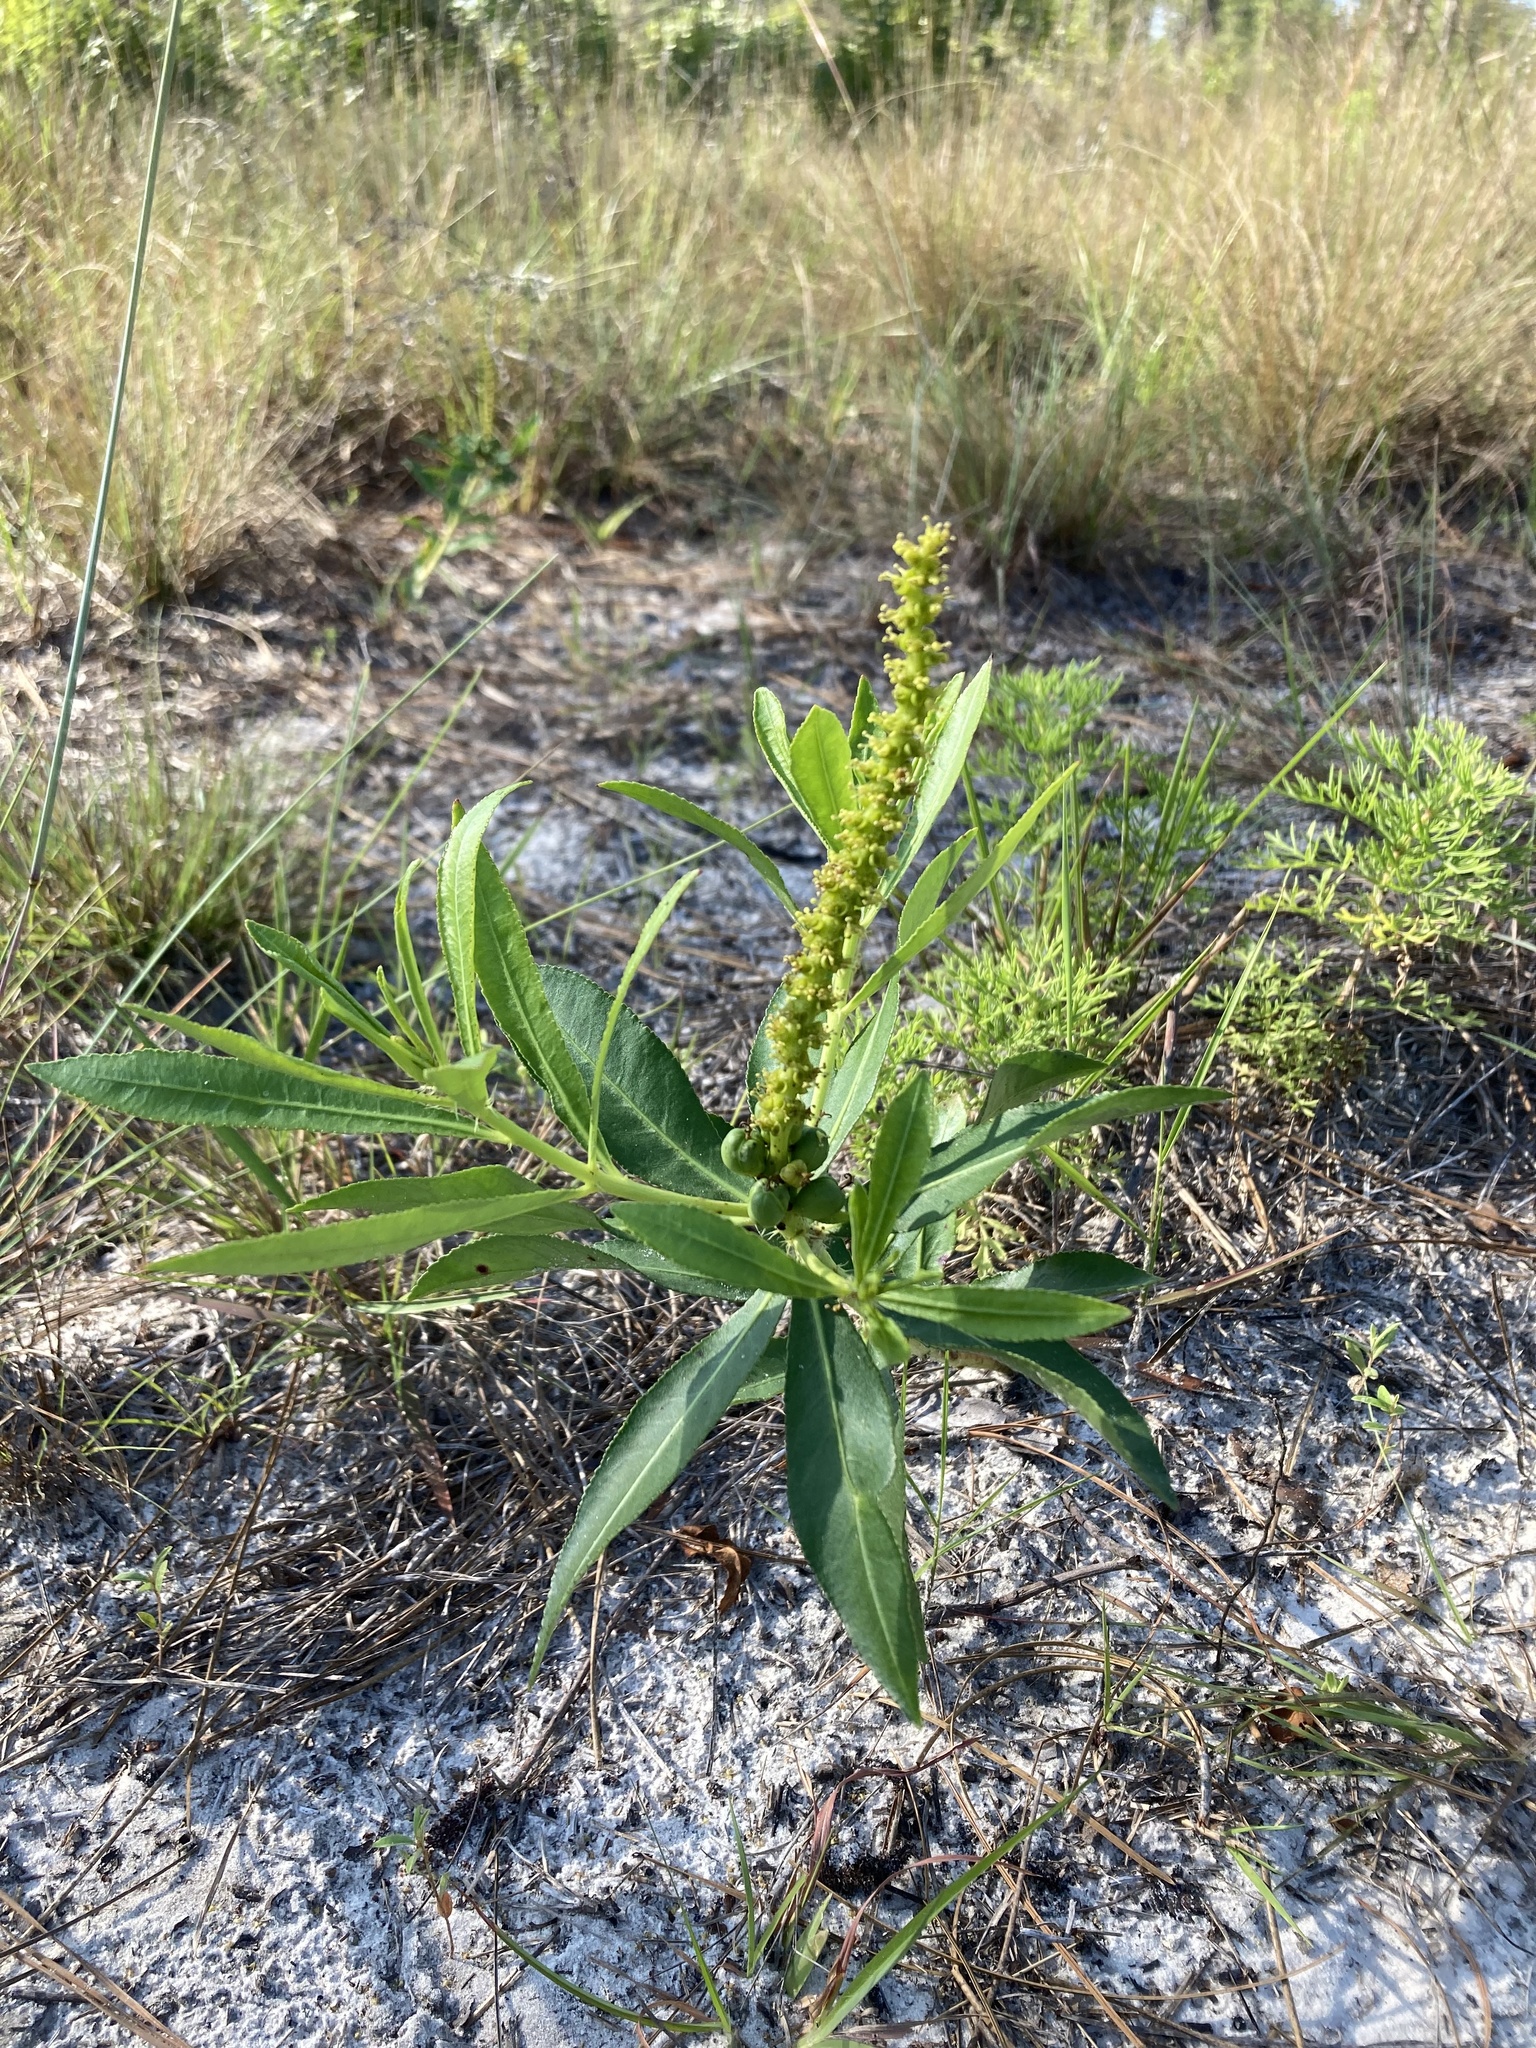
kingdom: Plantae
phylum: Tracheophyta
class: Magnoliopsida
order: Malpighiales
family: Euphorbiaceae
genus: Stillingia
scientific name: Stillingia sylvatica
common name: Queen's-delight
